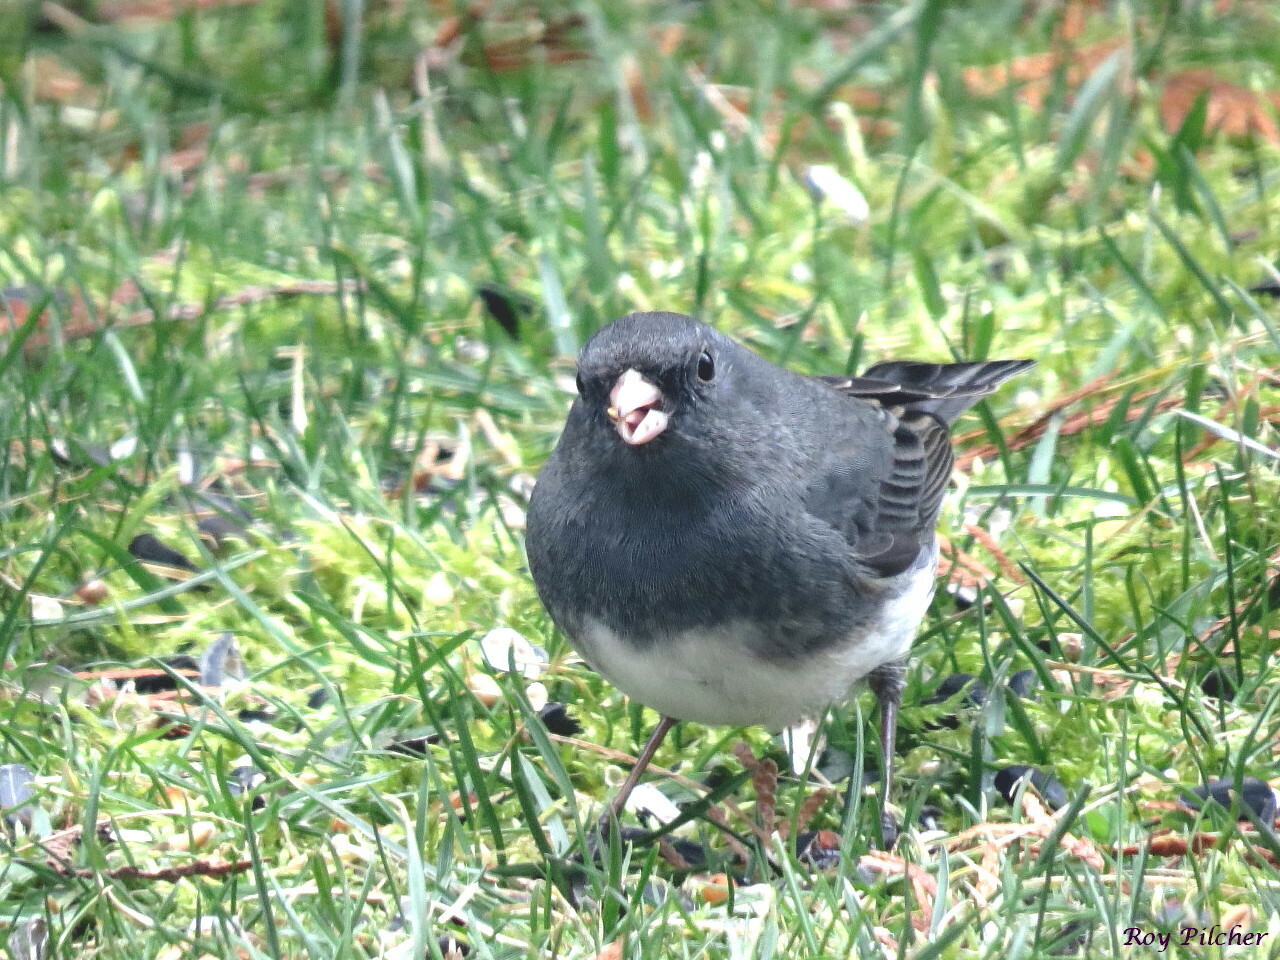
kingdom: Animalia
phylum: Chordata
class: Aves
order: Passeriformes
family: Passerellidae
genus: Junco
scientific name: Junco hyemalis
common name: Dark-eyed junco
